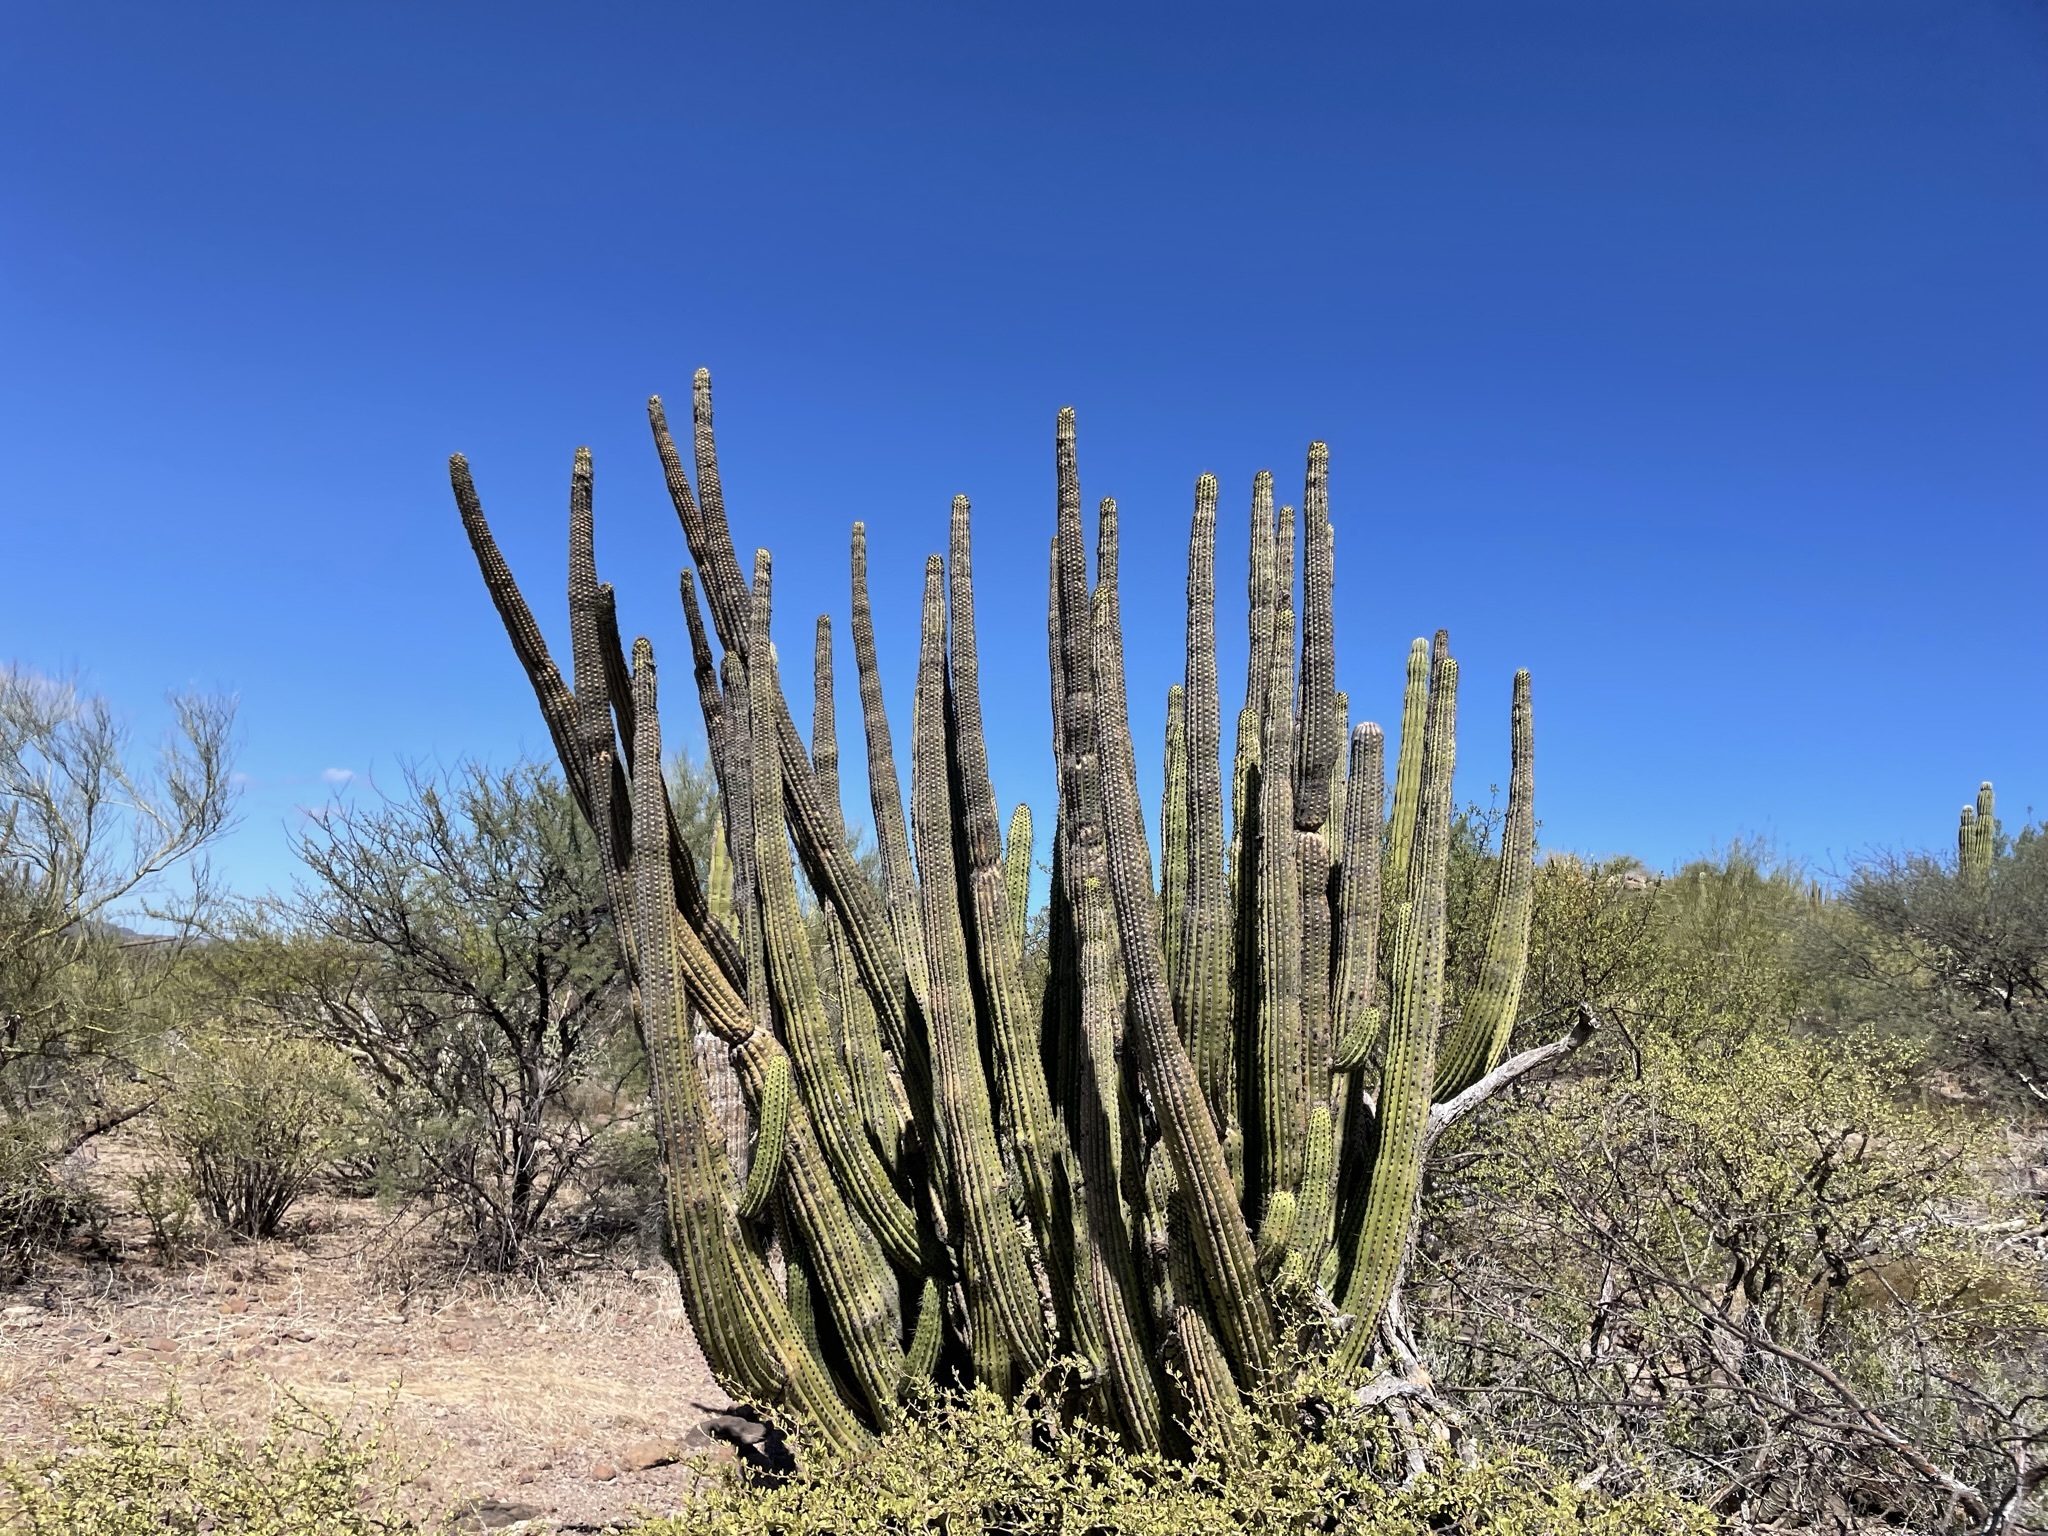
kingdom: Plantae
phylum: Tracheophyta
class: Magnoliopsida
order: Caryophyllales
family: Cactaceae
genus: Stenocereus
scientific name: Stenocereus thurberi
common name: Organ pipe cactus
